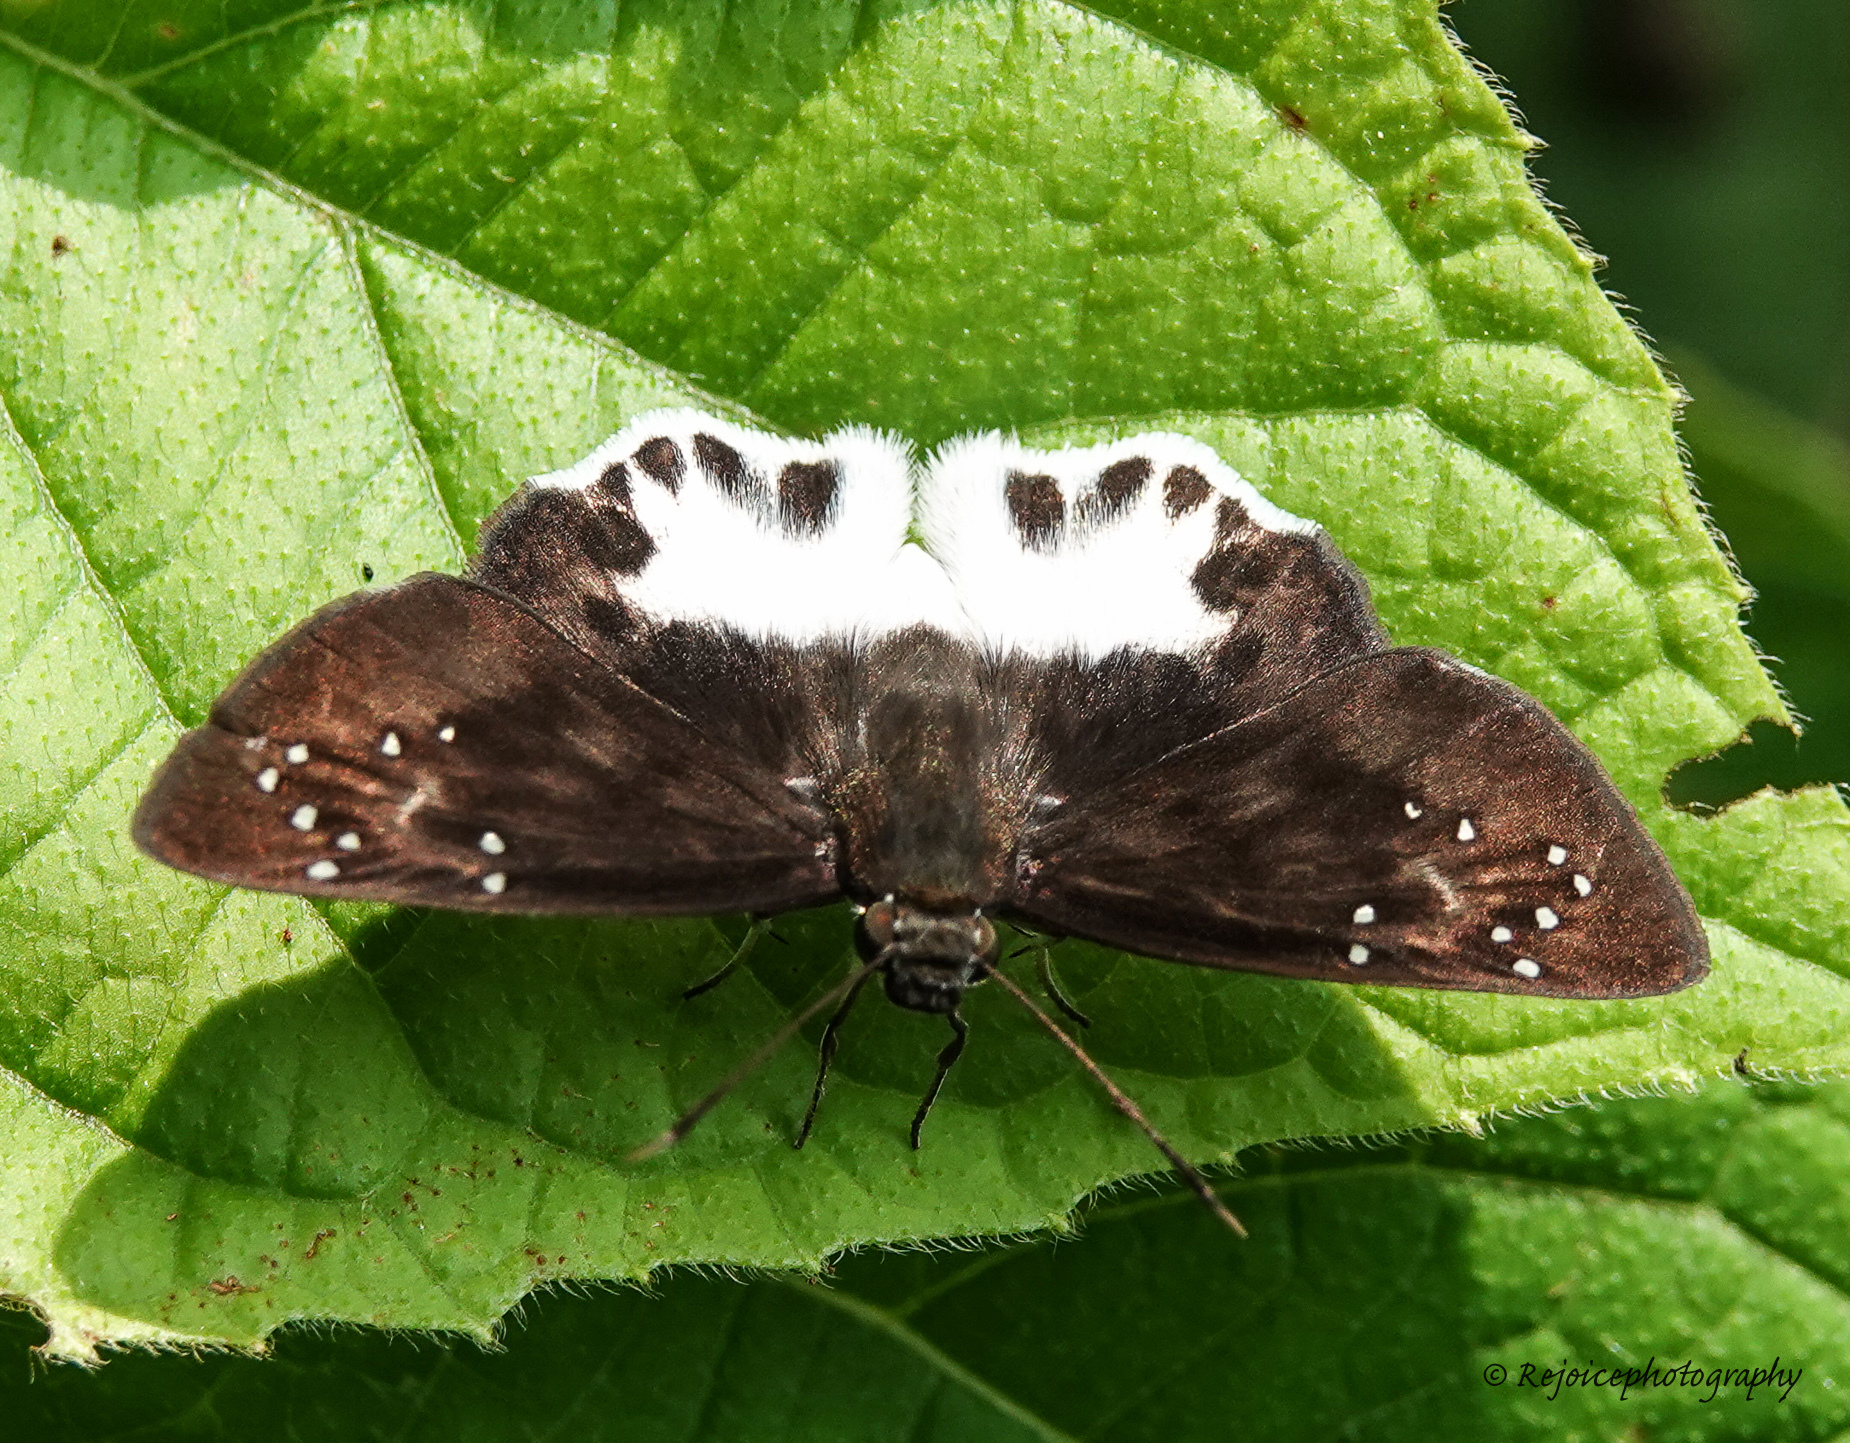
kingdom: Animalia
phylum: Arthropoda
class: Insecta
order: Lepidoptera
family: Hesperiidae
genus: Tagiades
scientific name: Tagiades litigiosa
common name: Water snow flat
